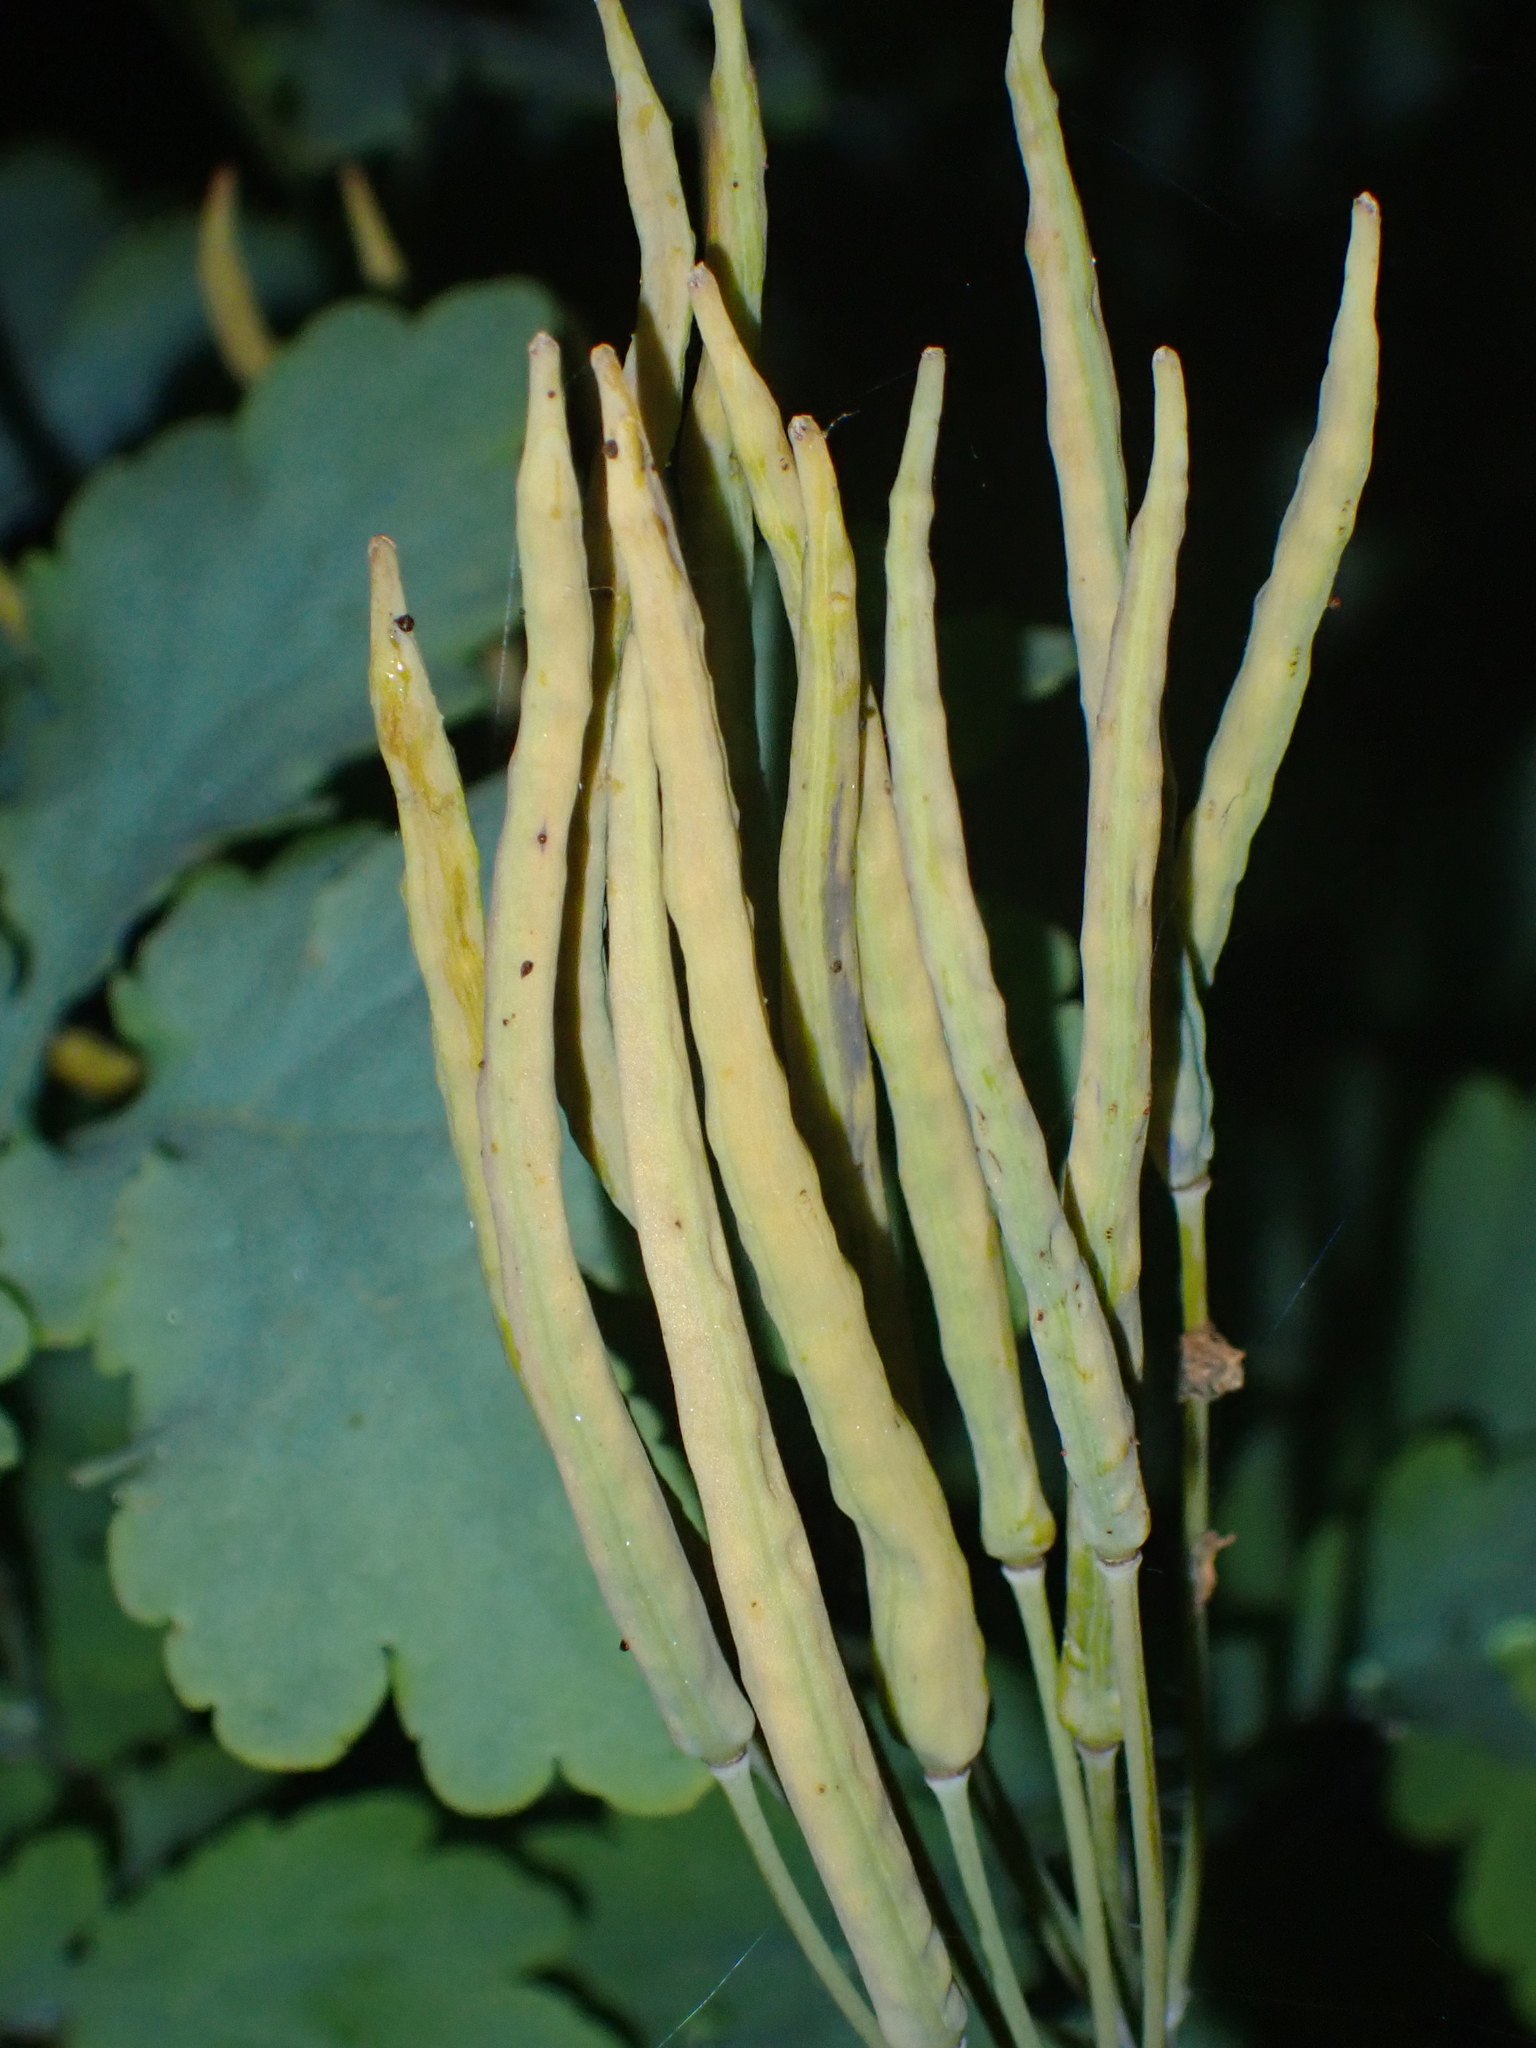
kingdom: Plantae
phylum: Tracheophyta
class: Magnoliopsida
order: Ranunculales
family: Papaveraceae
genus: Chelidonium
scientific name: Chelidonium majus
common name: Greater celandine
